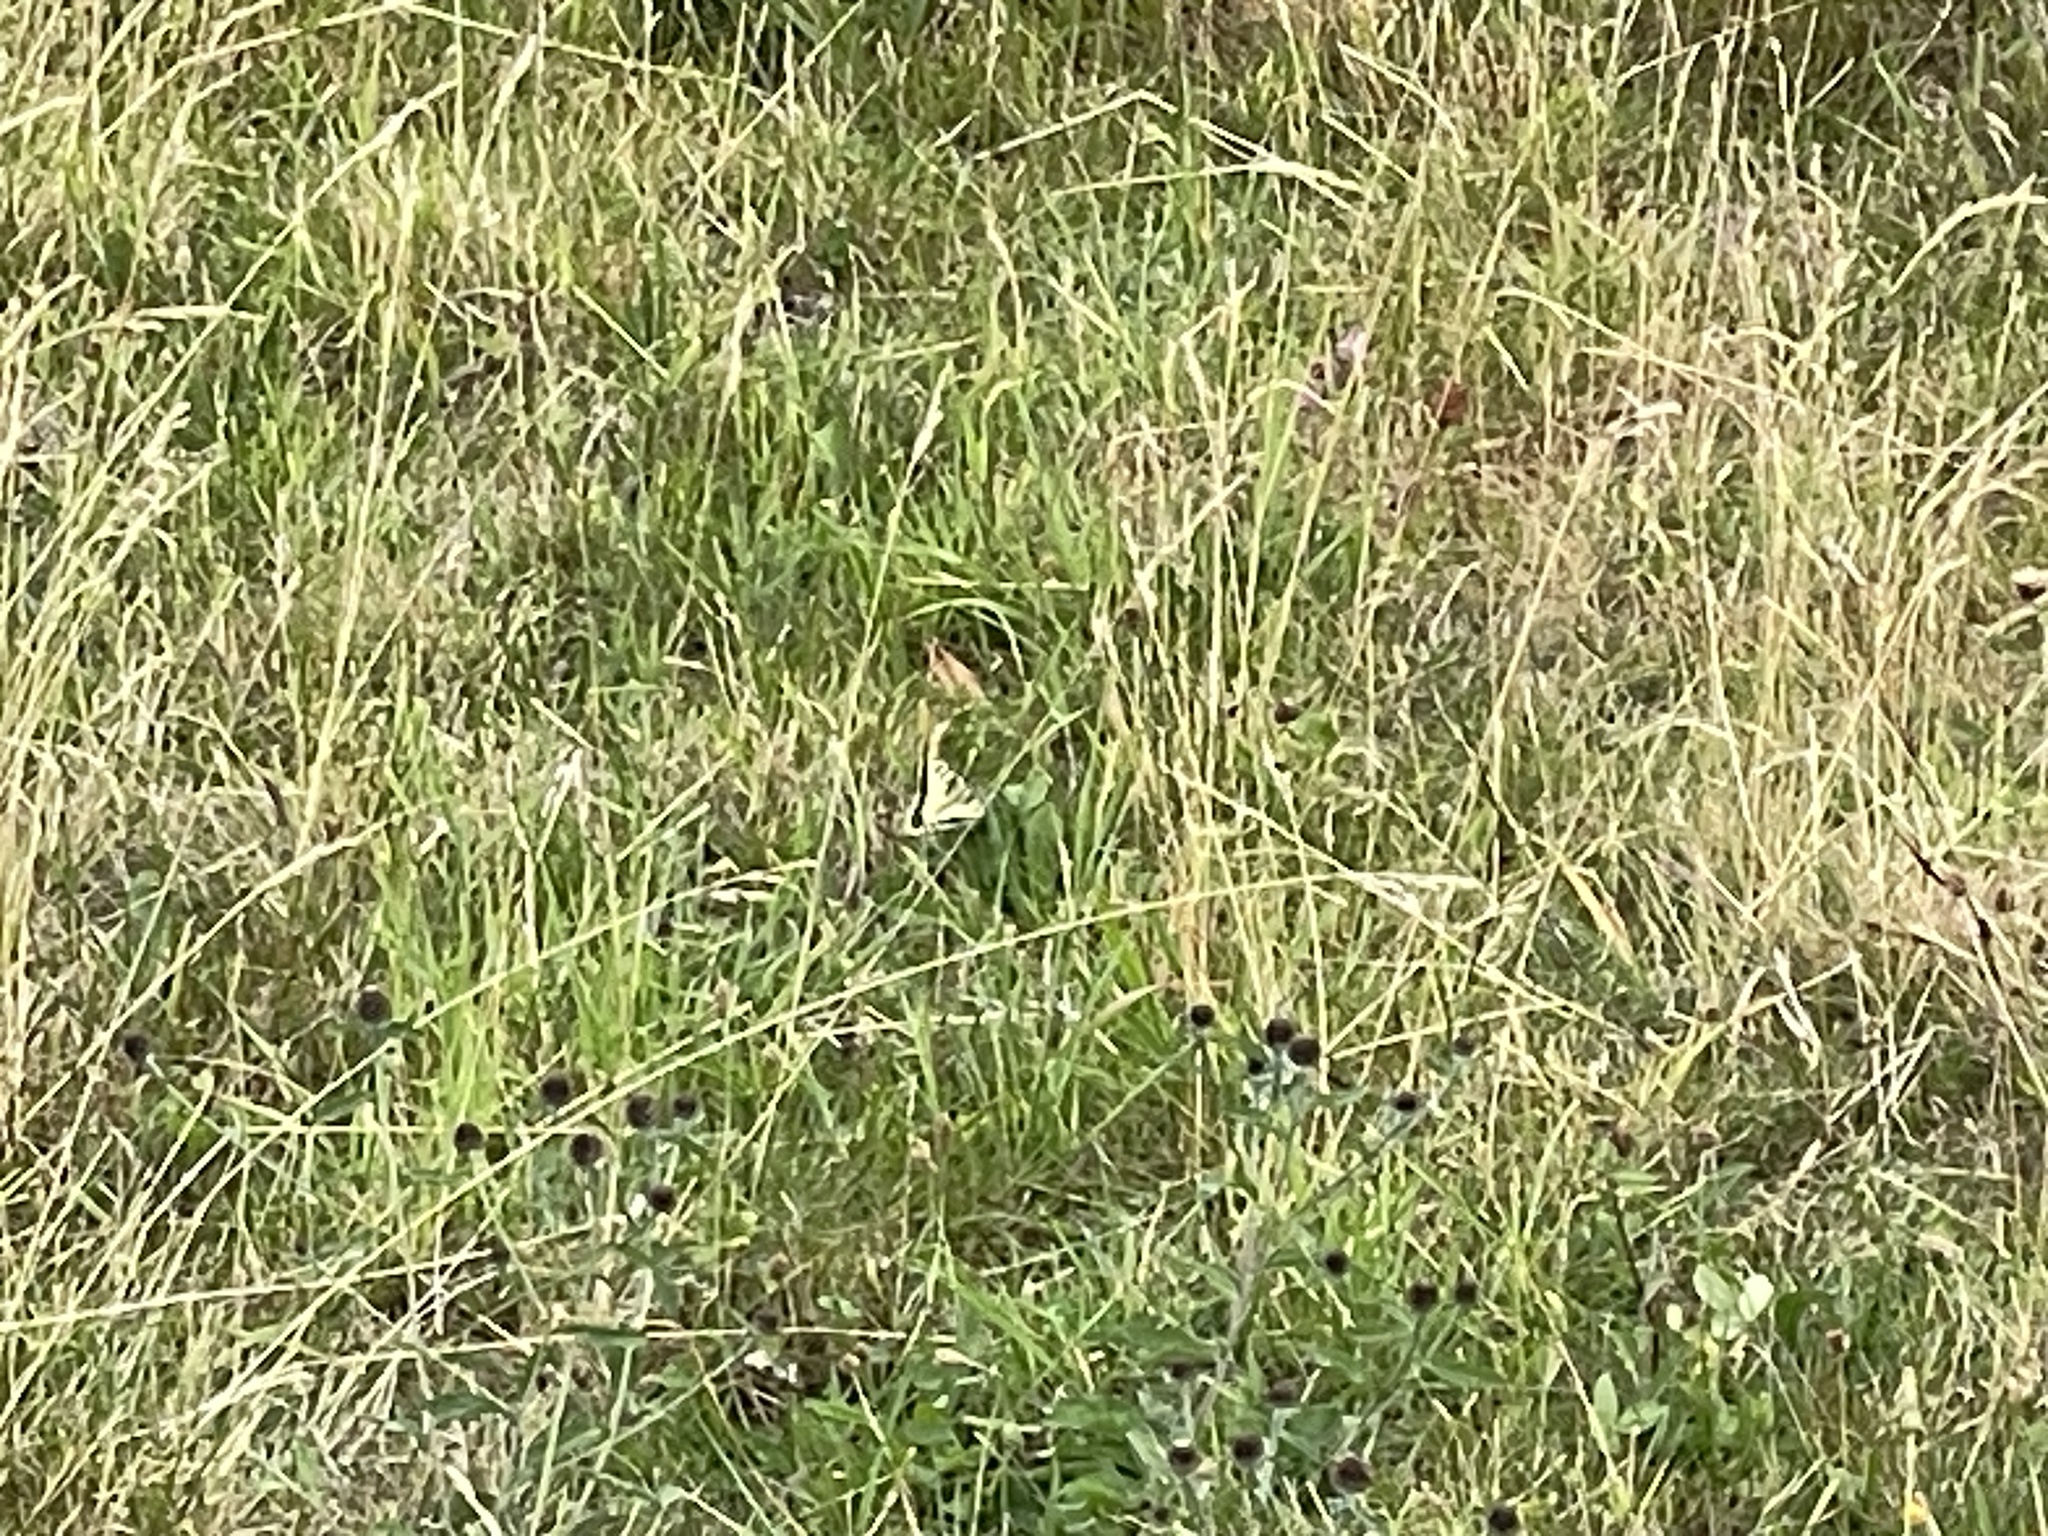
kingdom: Animalia
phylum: Arthropoda
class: Insecta
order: Lepidoptera
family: Papilionidae
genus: Papilio
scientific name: Papilio machaon
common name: Swallowtail
